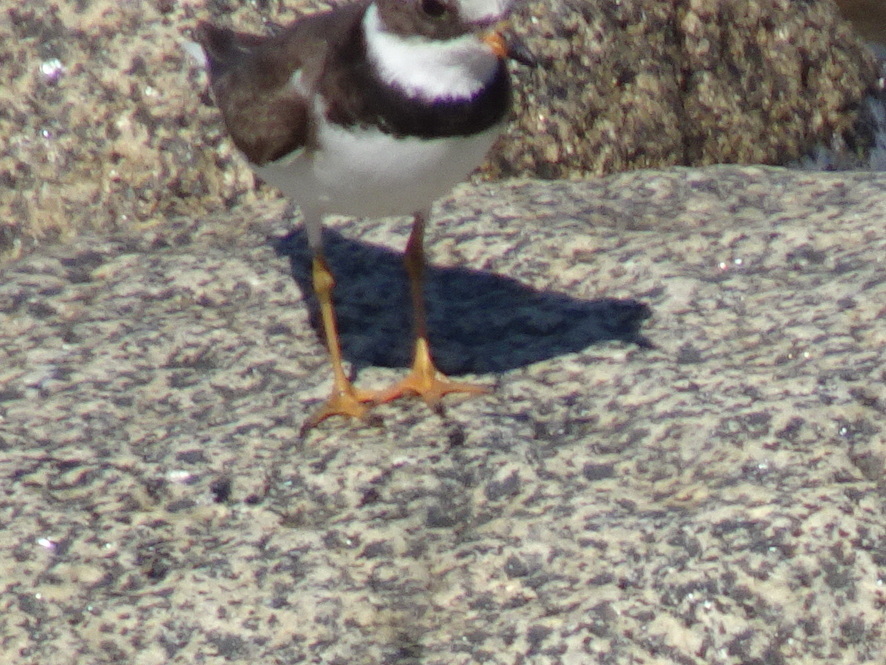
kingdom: Animalia
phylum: Chordata
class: Aves
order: Charadriiformes
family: Charadriidae
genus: Charadrius
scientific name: Charadrius semipalmatus
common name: Semipalmated plover
